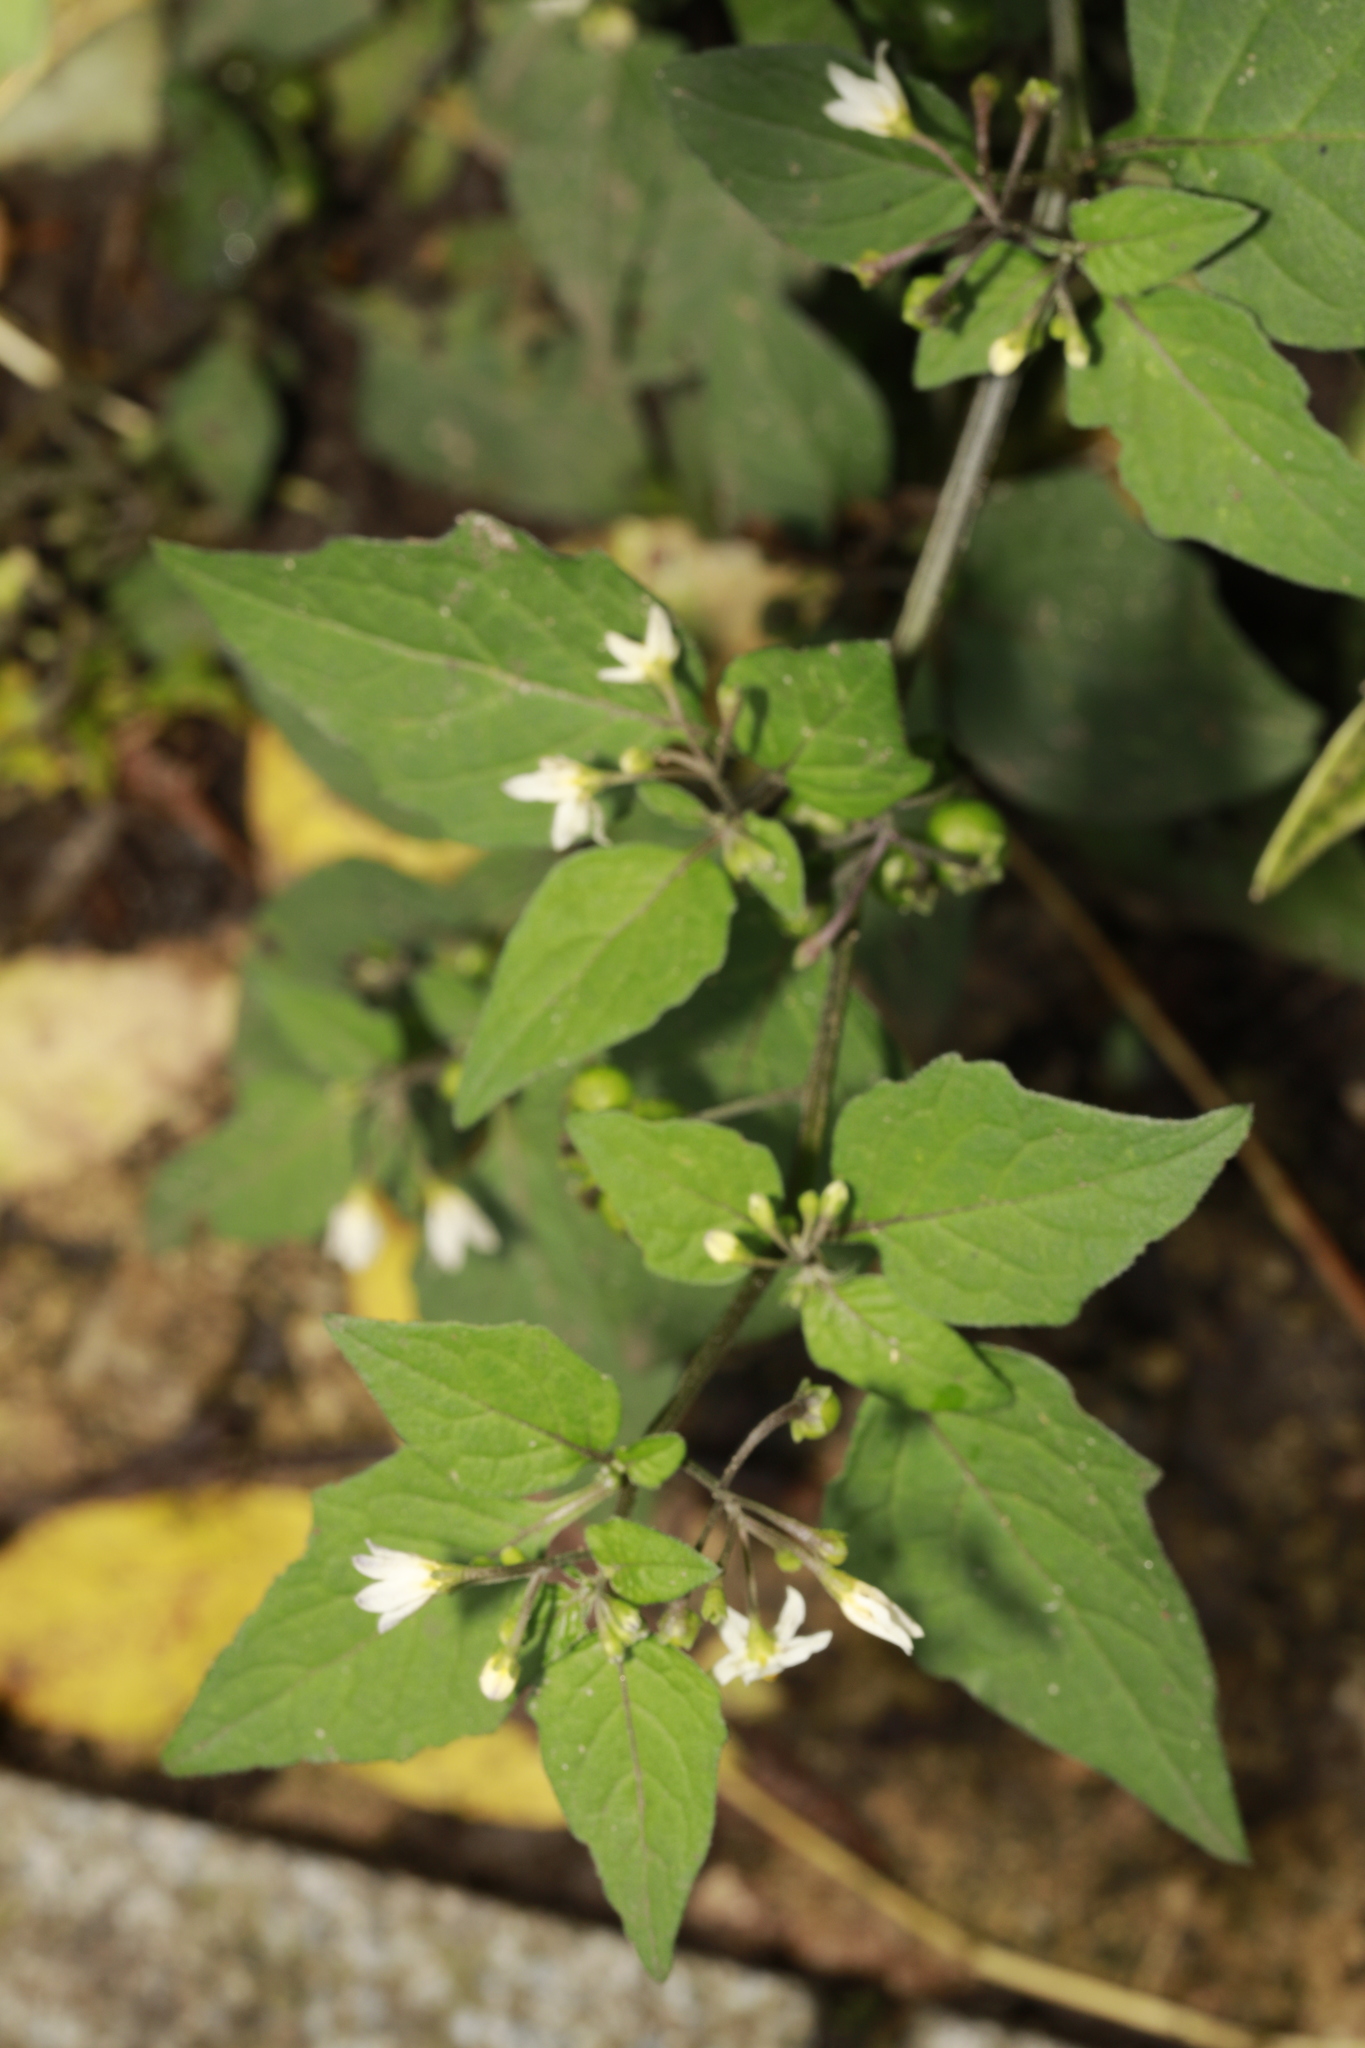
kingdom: Plantae
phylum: Tracheophyta
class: Magnoliopsida
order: Solanales
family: Solanaceae
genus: Solanum
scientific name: Solanum nigrum
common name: Black nightshade
